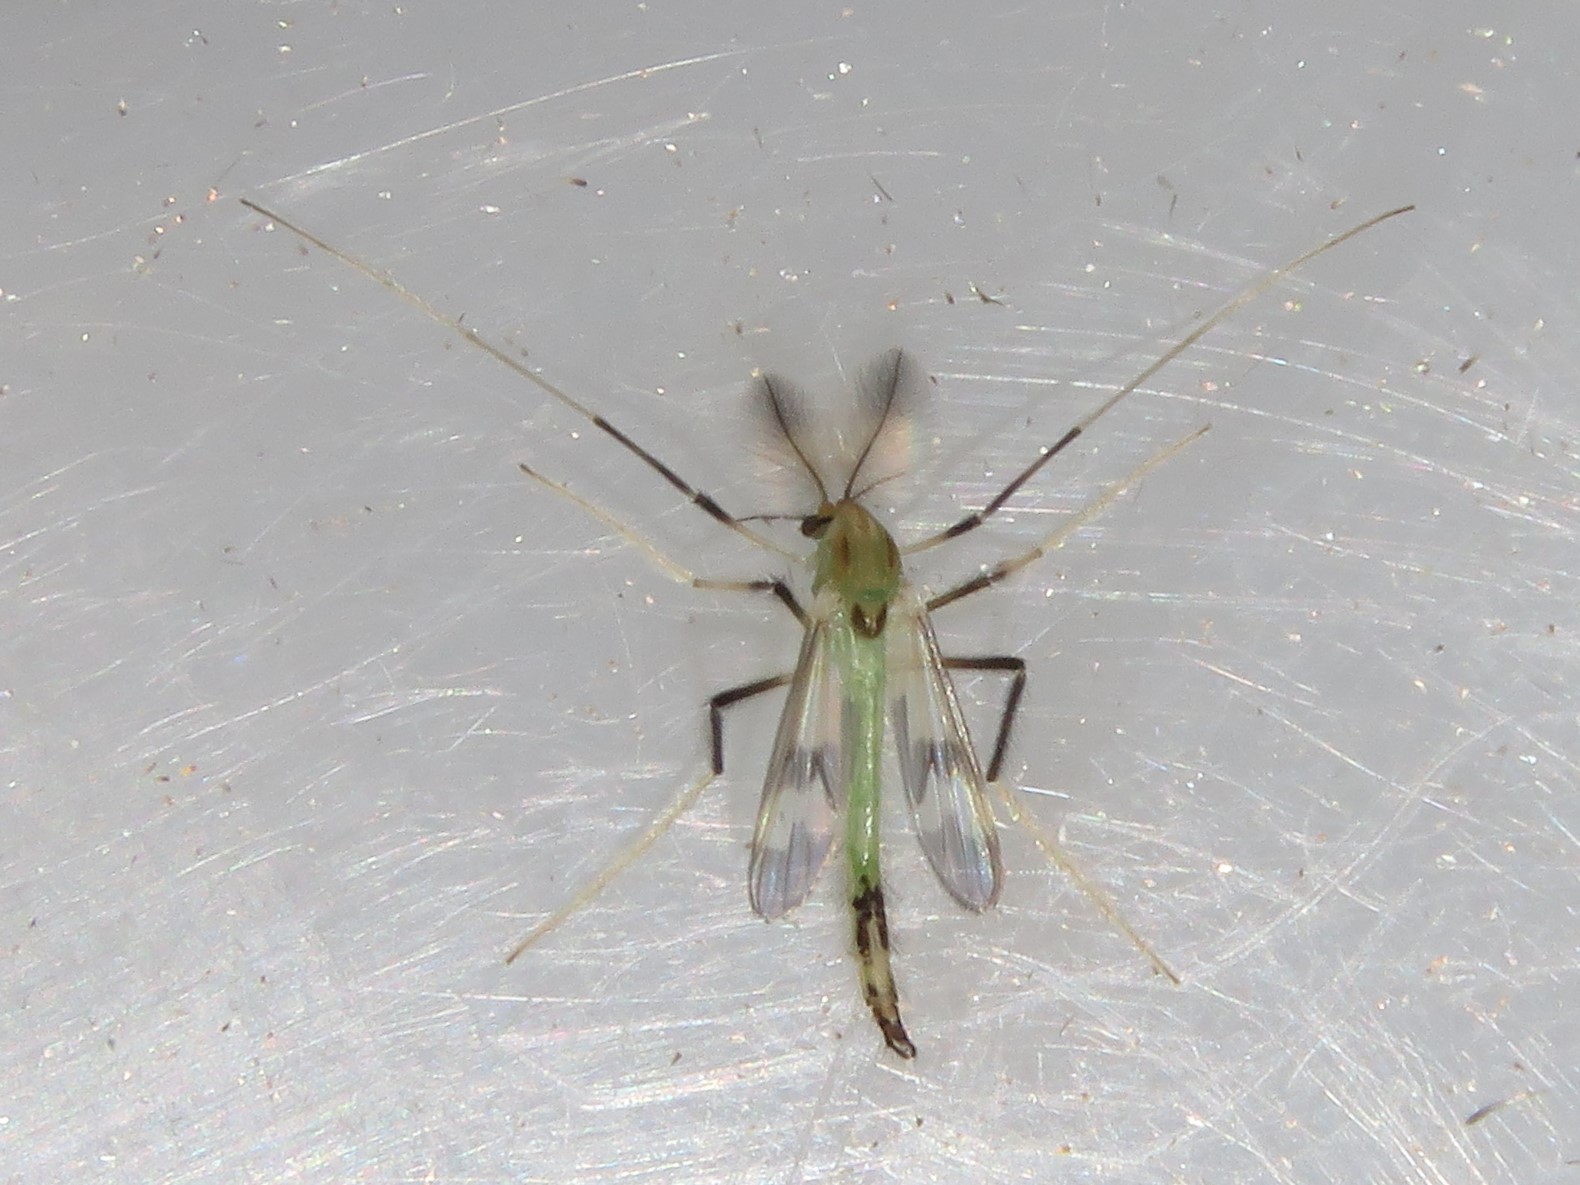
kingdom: Animalia
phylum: Arthropoda
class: Insecta
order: Diptera
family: Chironomidae
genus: Stenochironomus
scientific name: Stenochironomus hilaris
